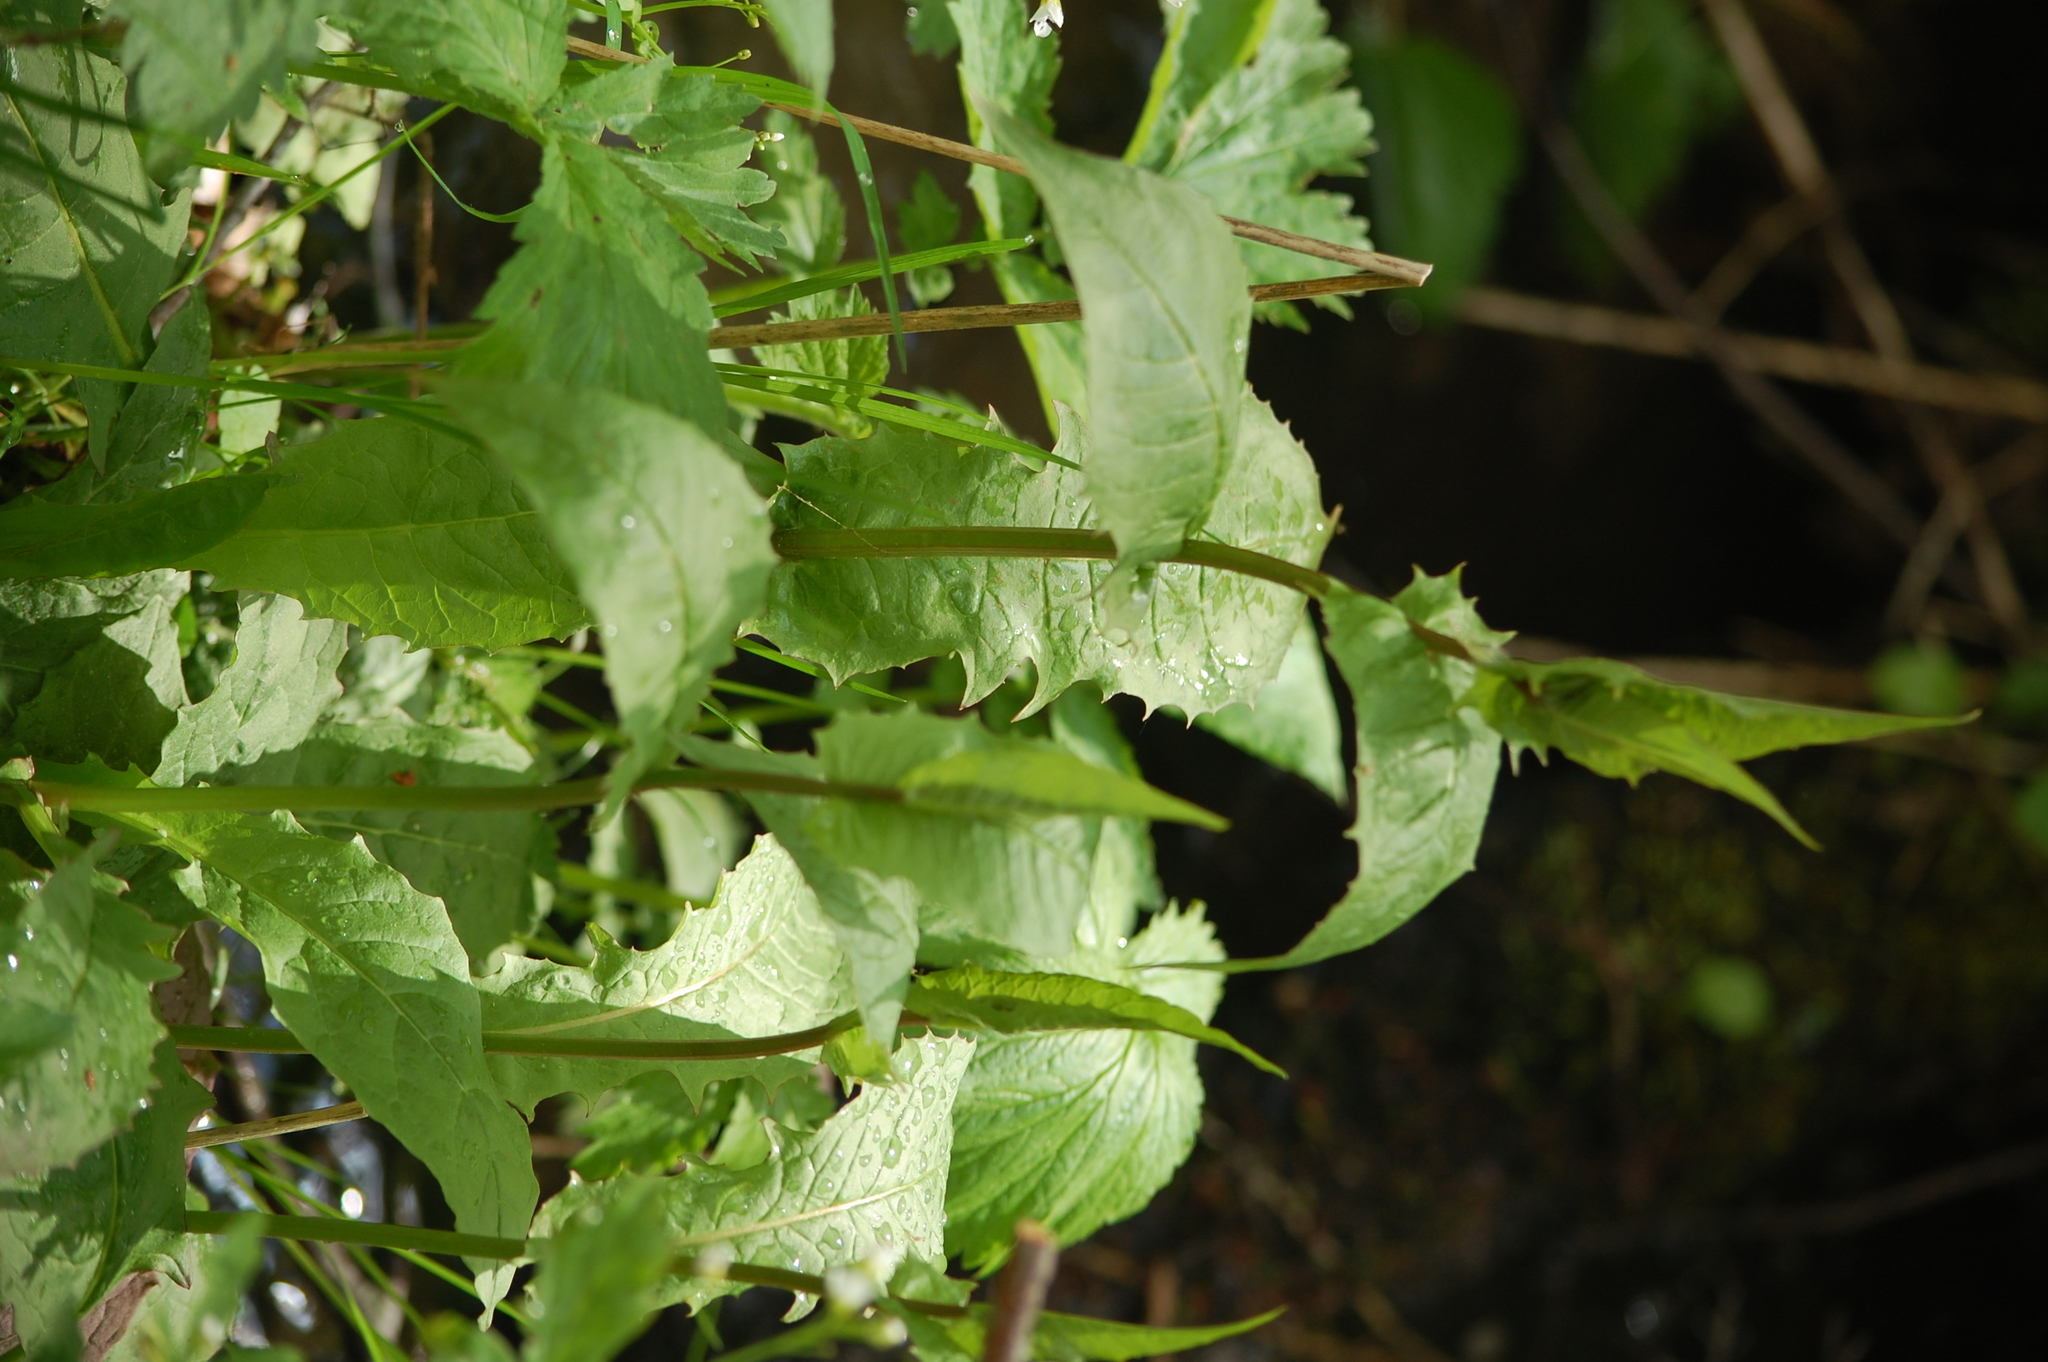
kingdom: Plantae
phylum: Tracheophyta
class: Magnoliopsida
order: Asterales
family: Asteraceae
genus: Crepis
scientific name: Crepis paludosa
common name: Marsh hawk's-beard
